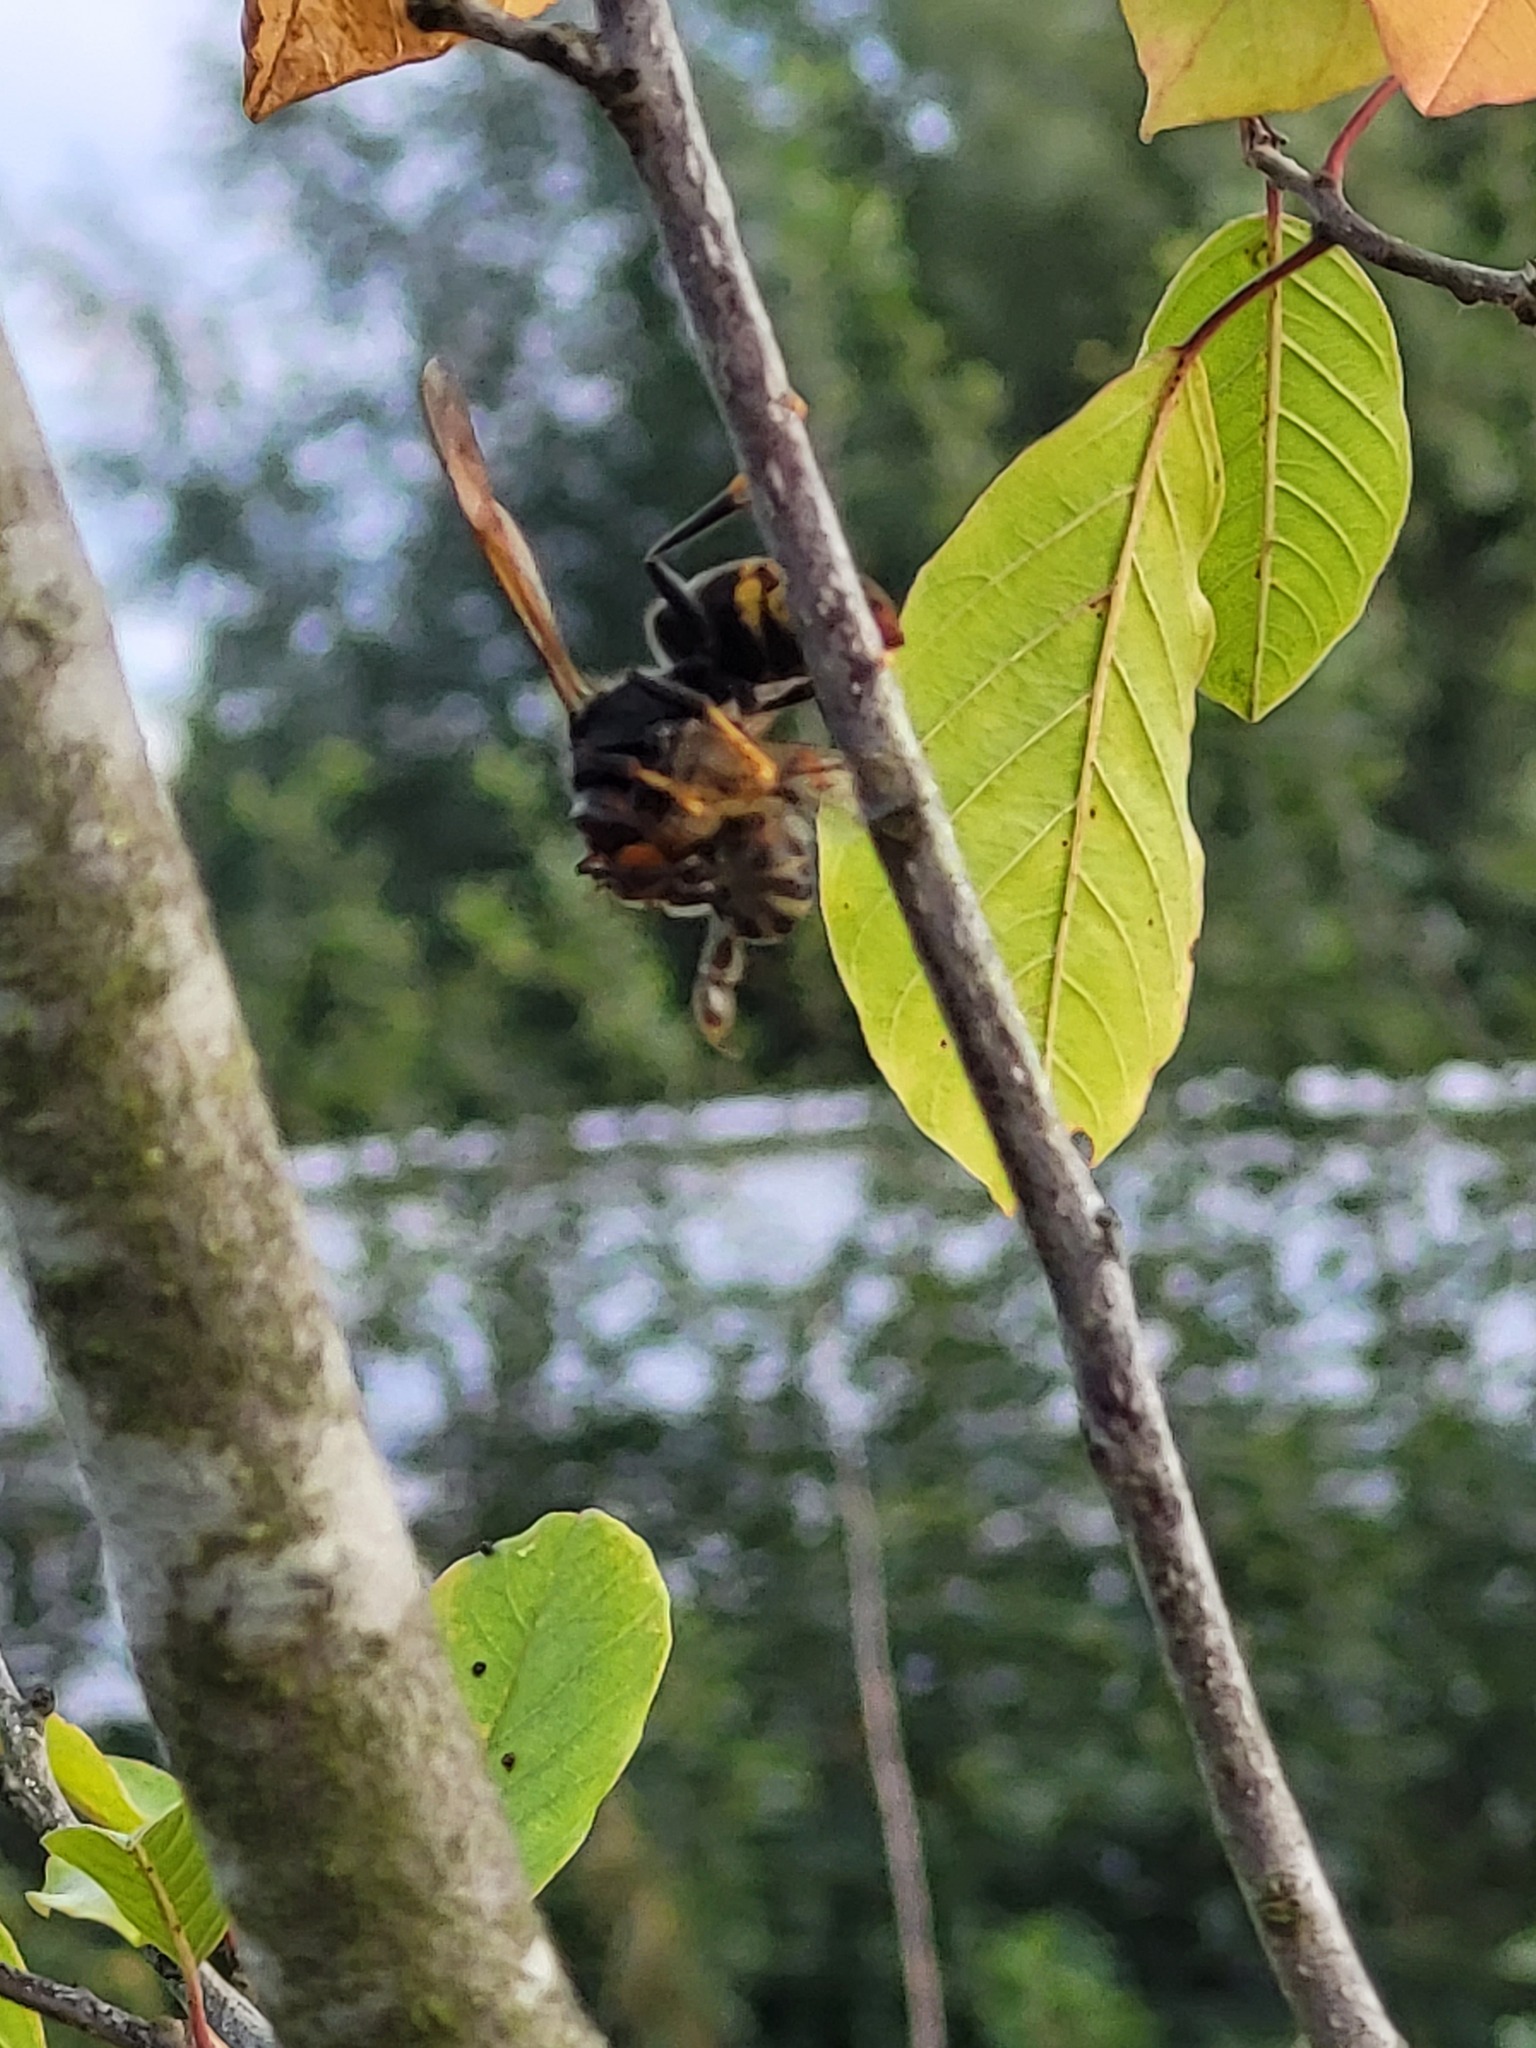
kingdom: Animalia
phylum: Arthropoda
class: Insecta
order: Hymenoptera
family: Vespidae
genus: Vespa
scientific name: Vespa velutina
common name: Asian hornet
